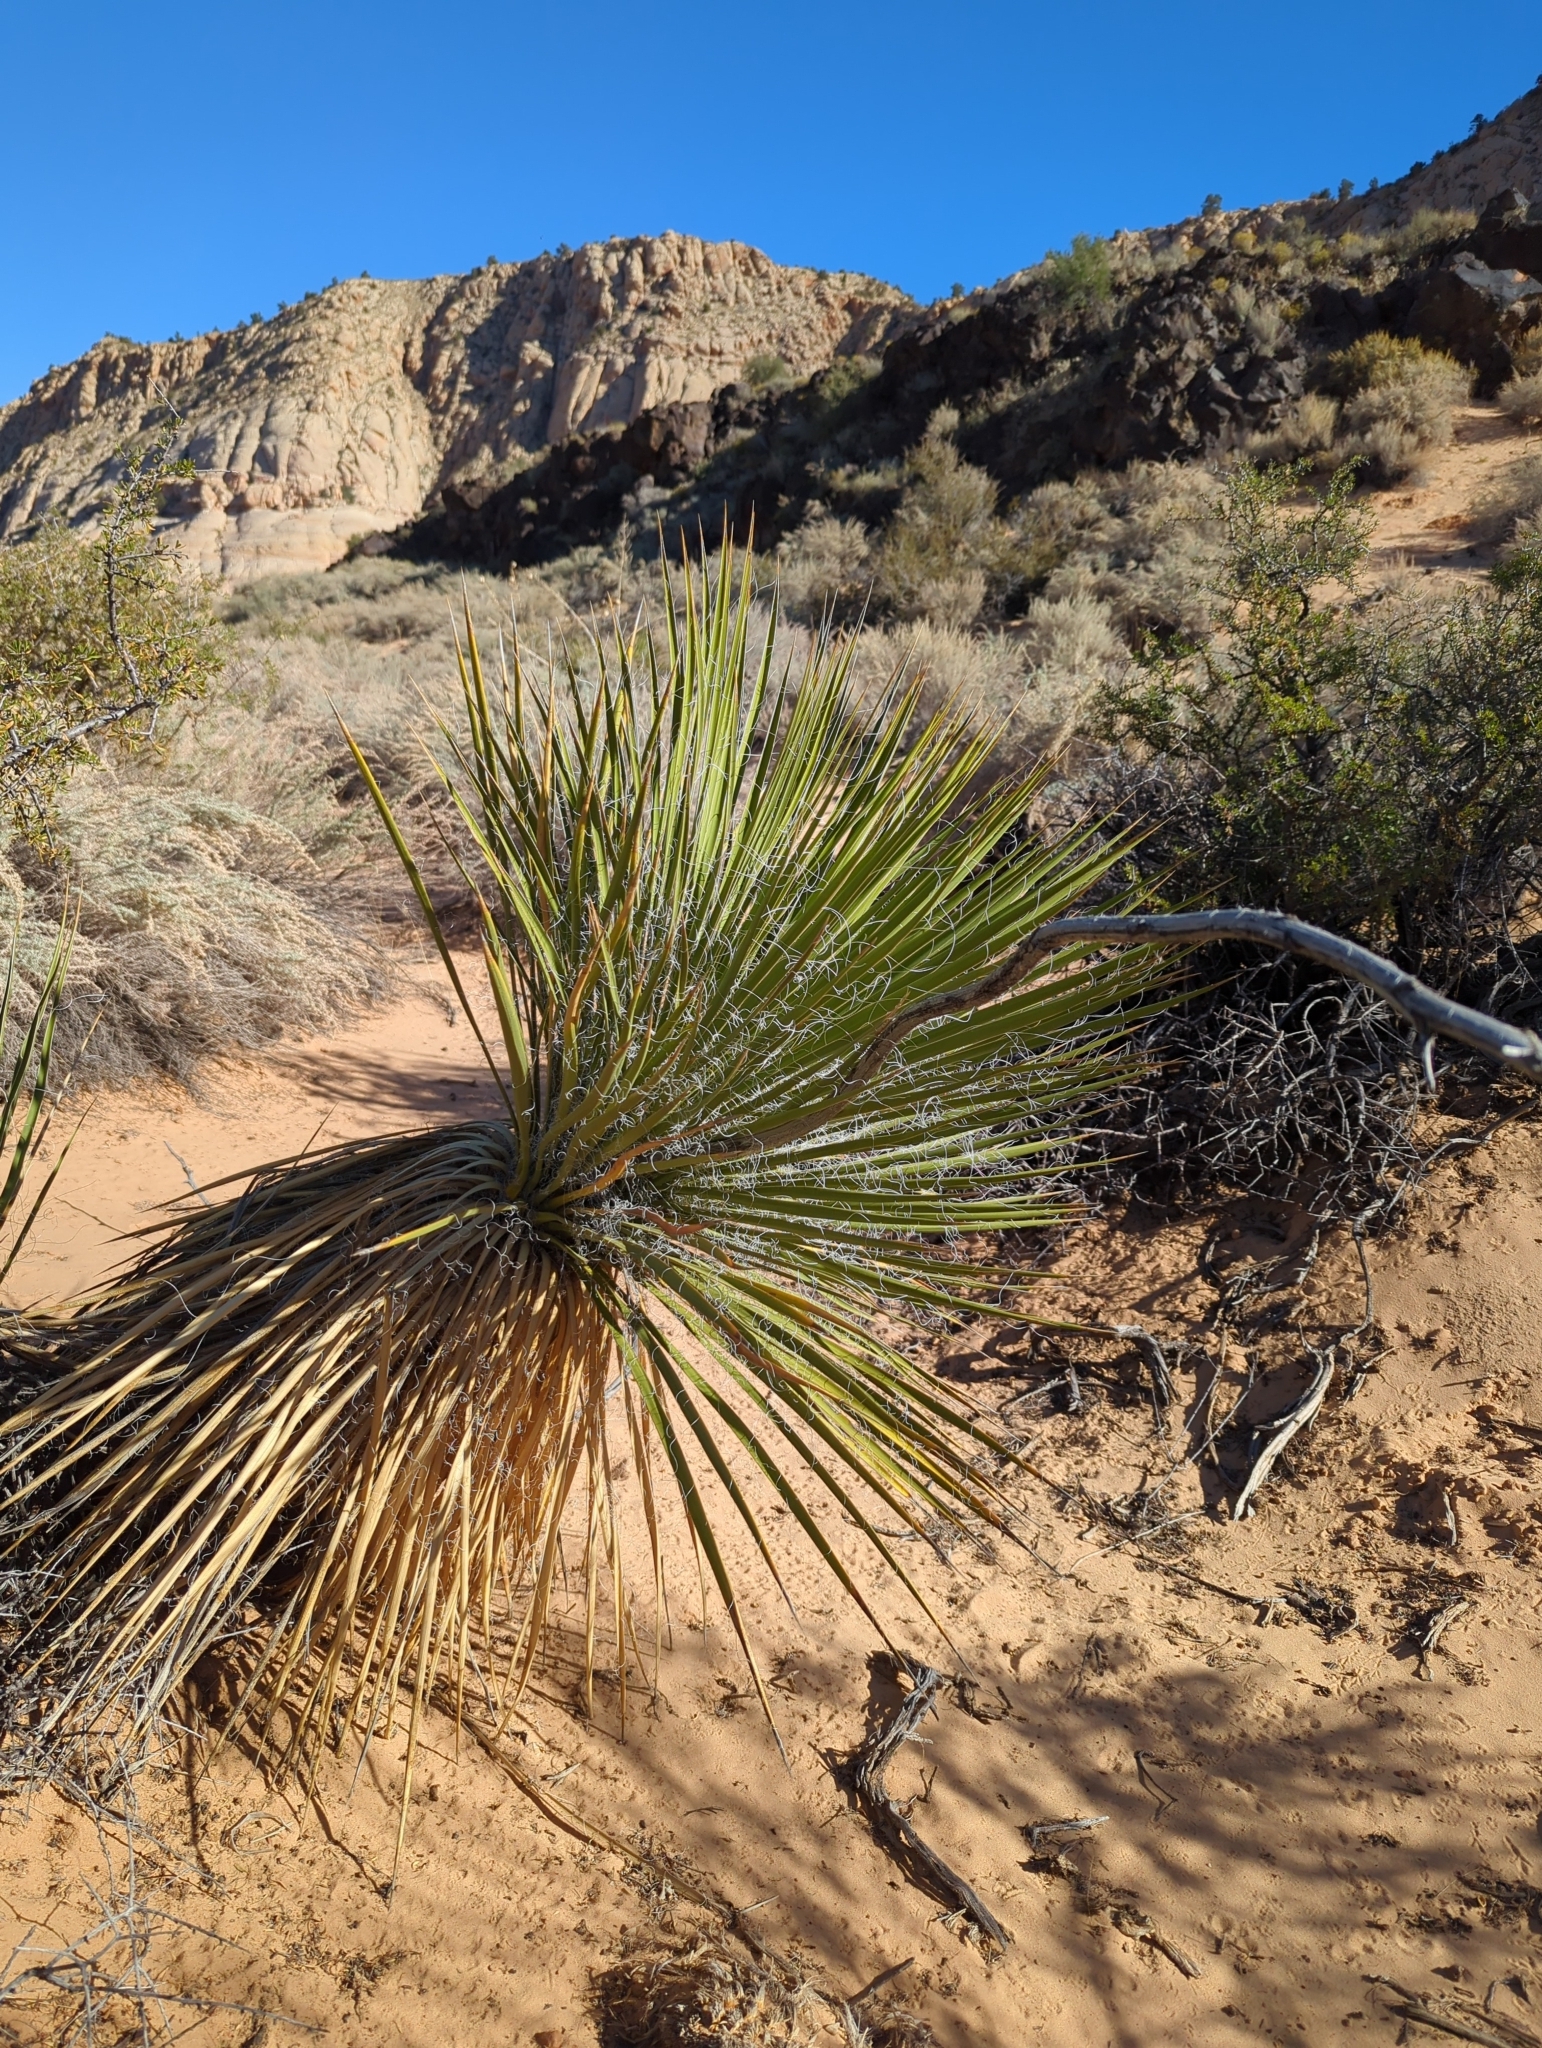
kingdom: Plantae
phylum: Tracheophyta
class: Liliopsida
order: Asparagales
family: Asparagaceae
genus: Yucca
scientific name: Yucca utahensis
